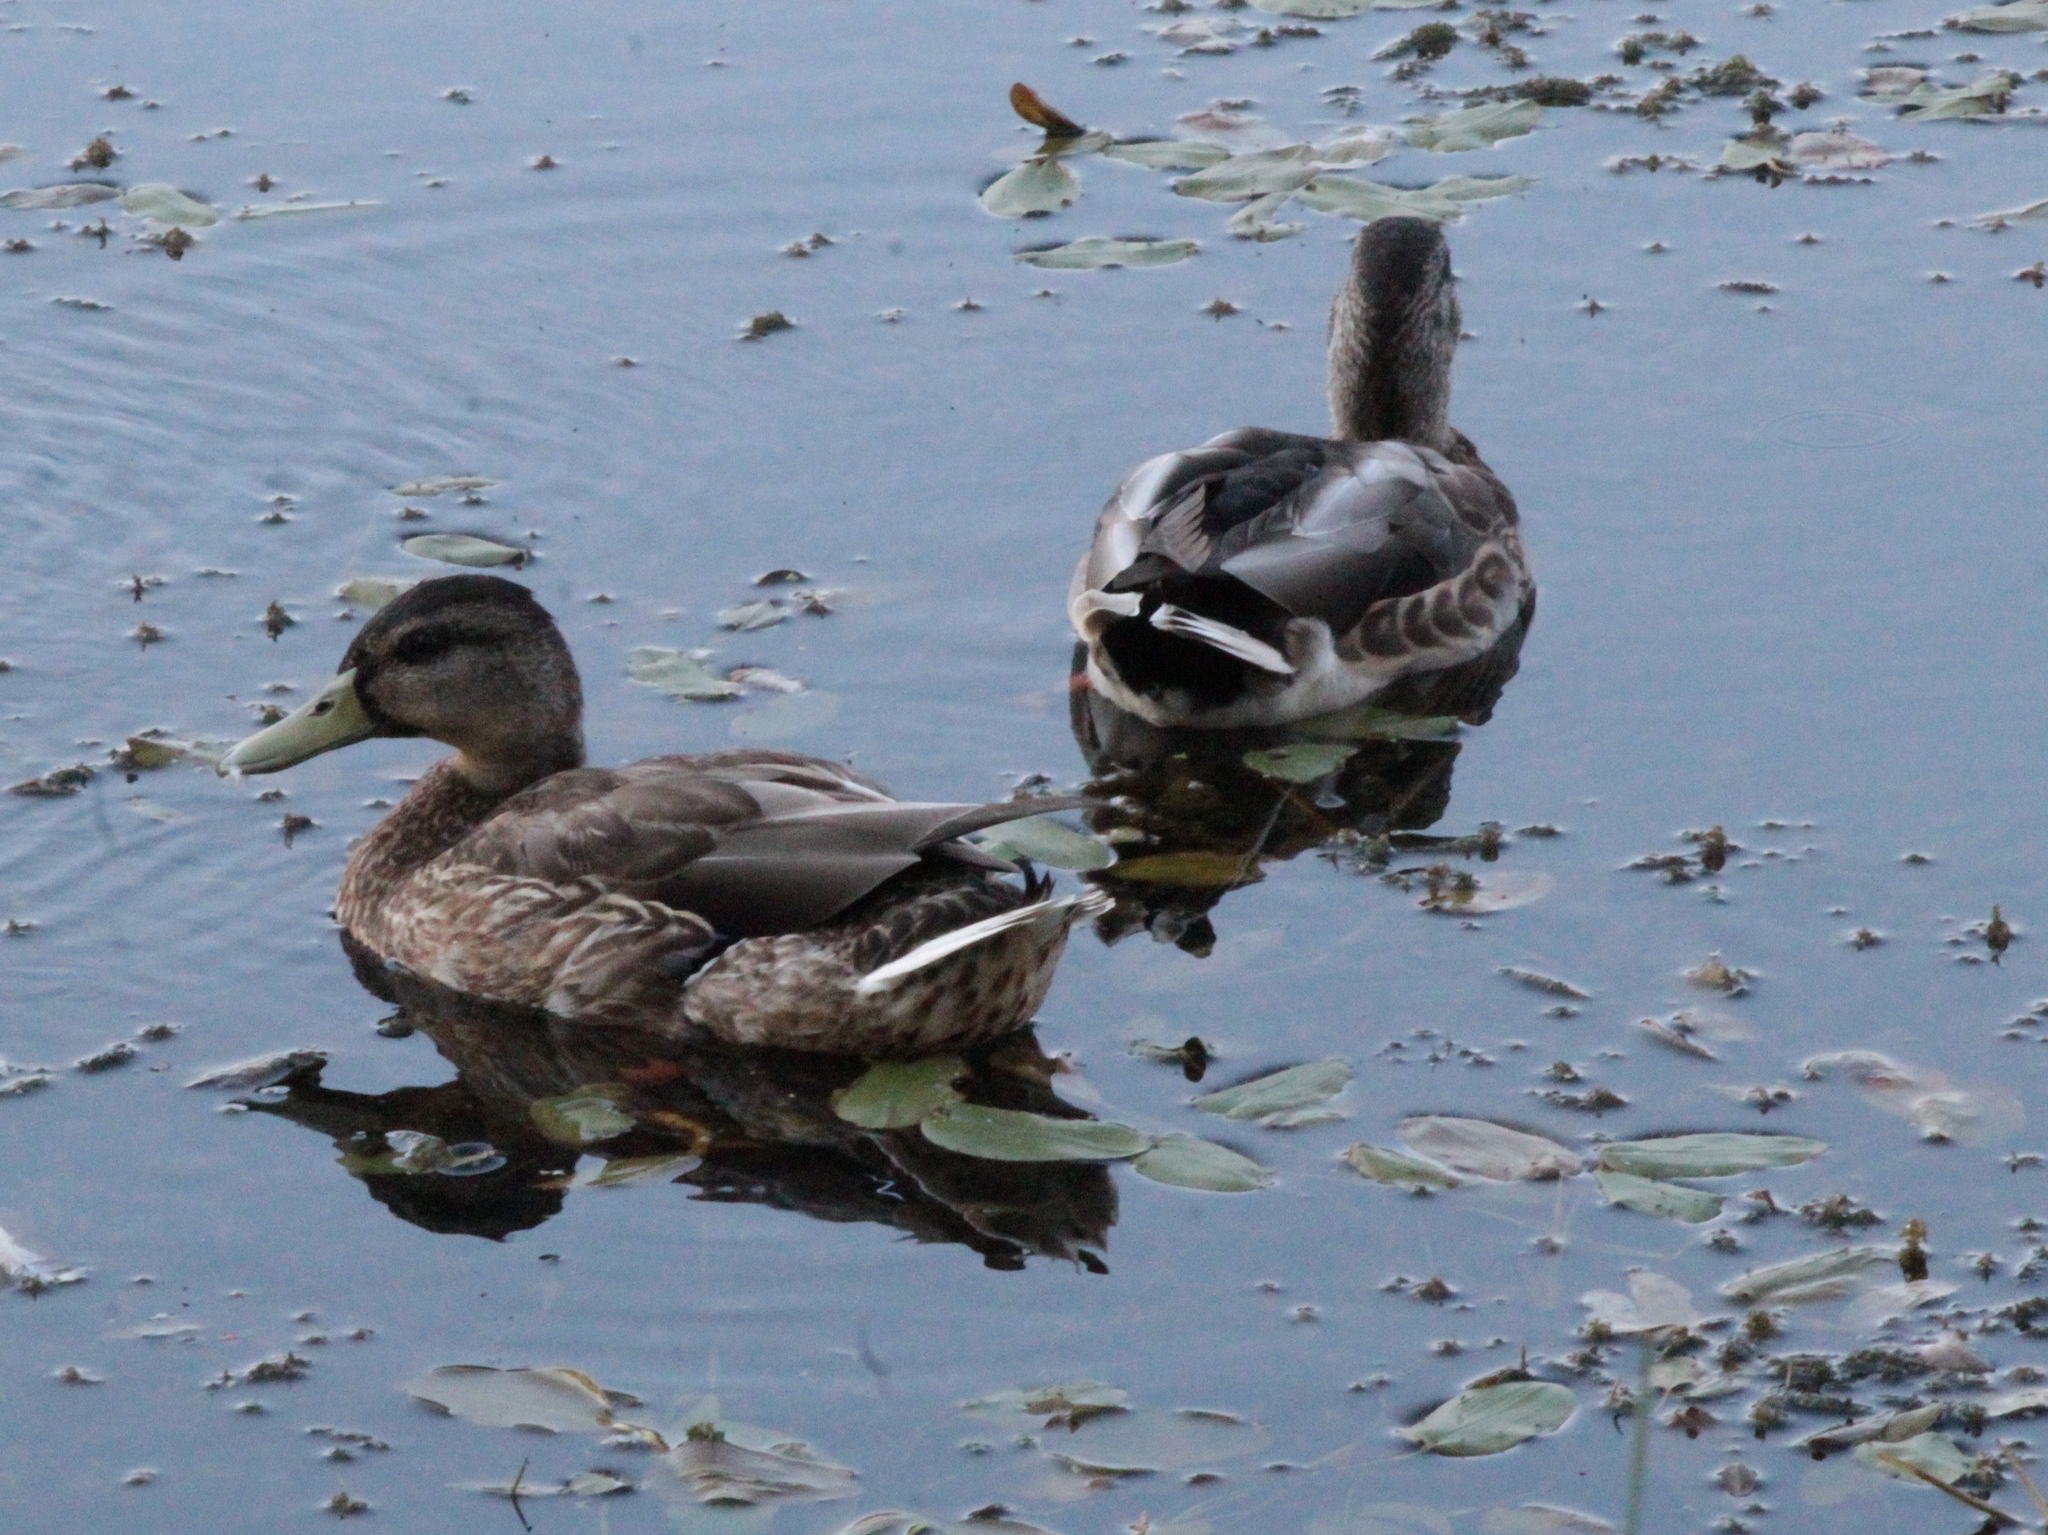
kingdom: Animalia
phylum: Chordata
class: Aves
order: Anseriformes
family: Anatidae
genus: Anas
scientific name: Anas platyrhynchos
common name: Mallard
